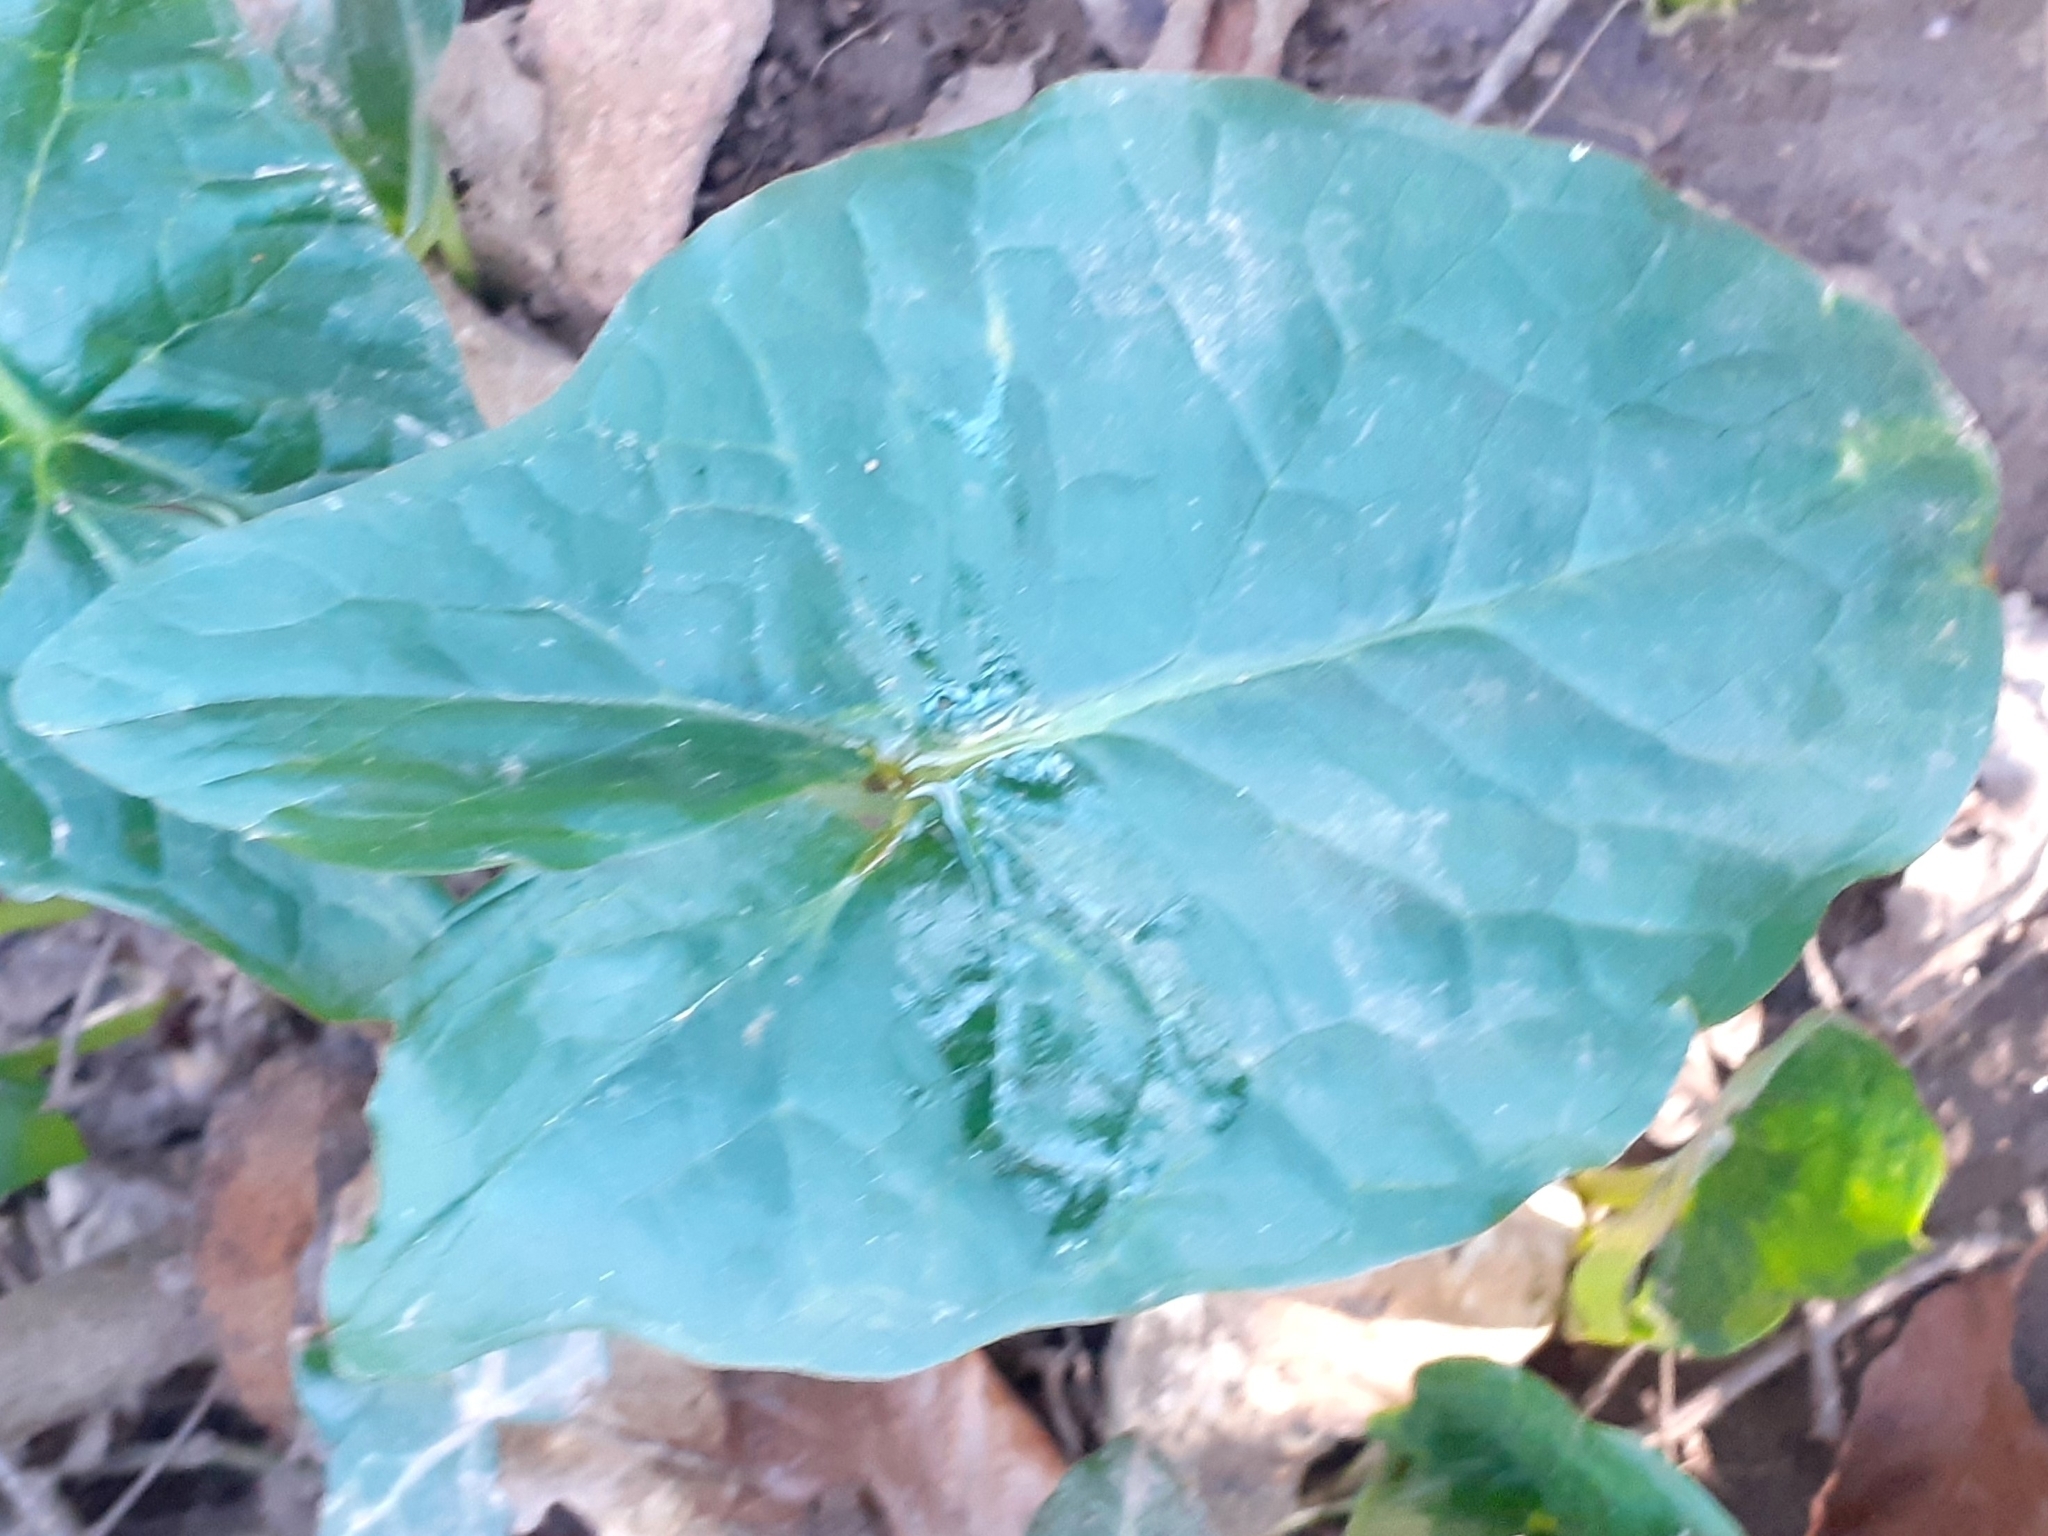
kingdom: Plantae
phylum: Tracheophyta
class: Liliopsida
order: Alismatales
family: Araceae
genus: Arum
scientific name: Arum maculatum
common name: Lords-and-ladies
